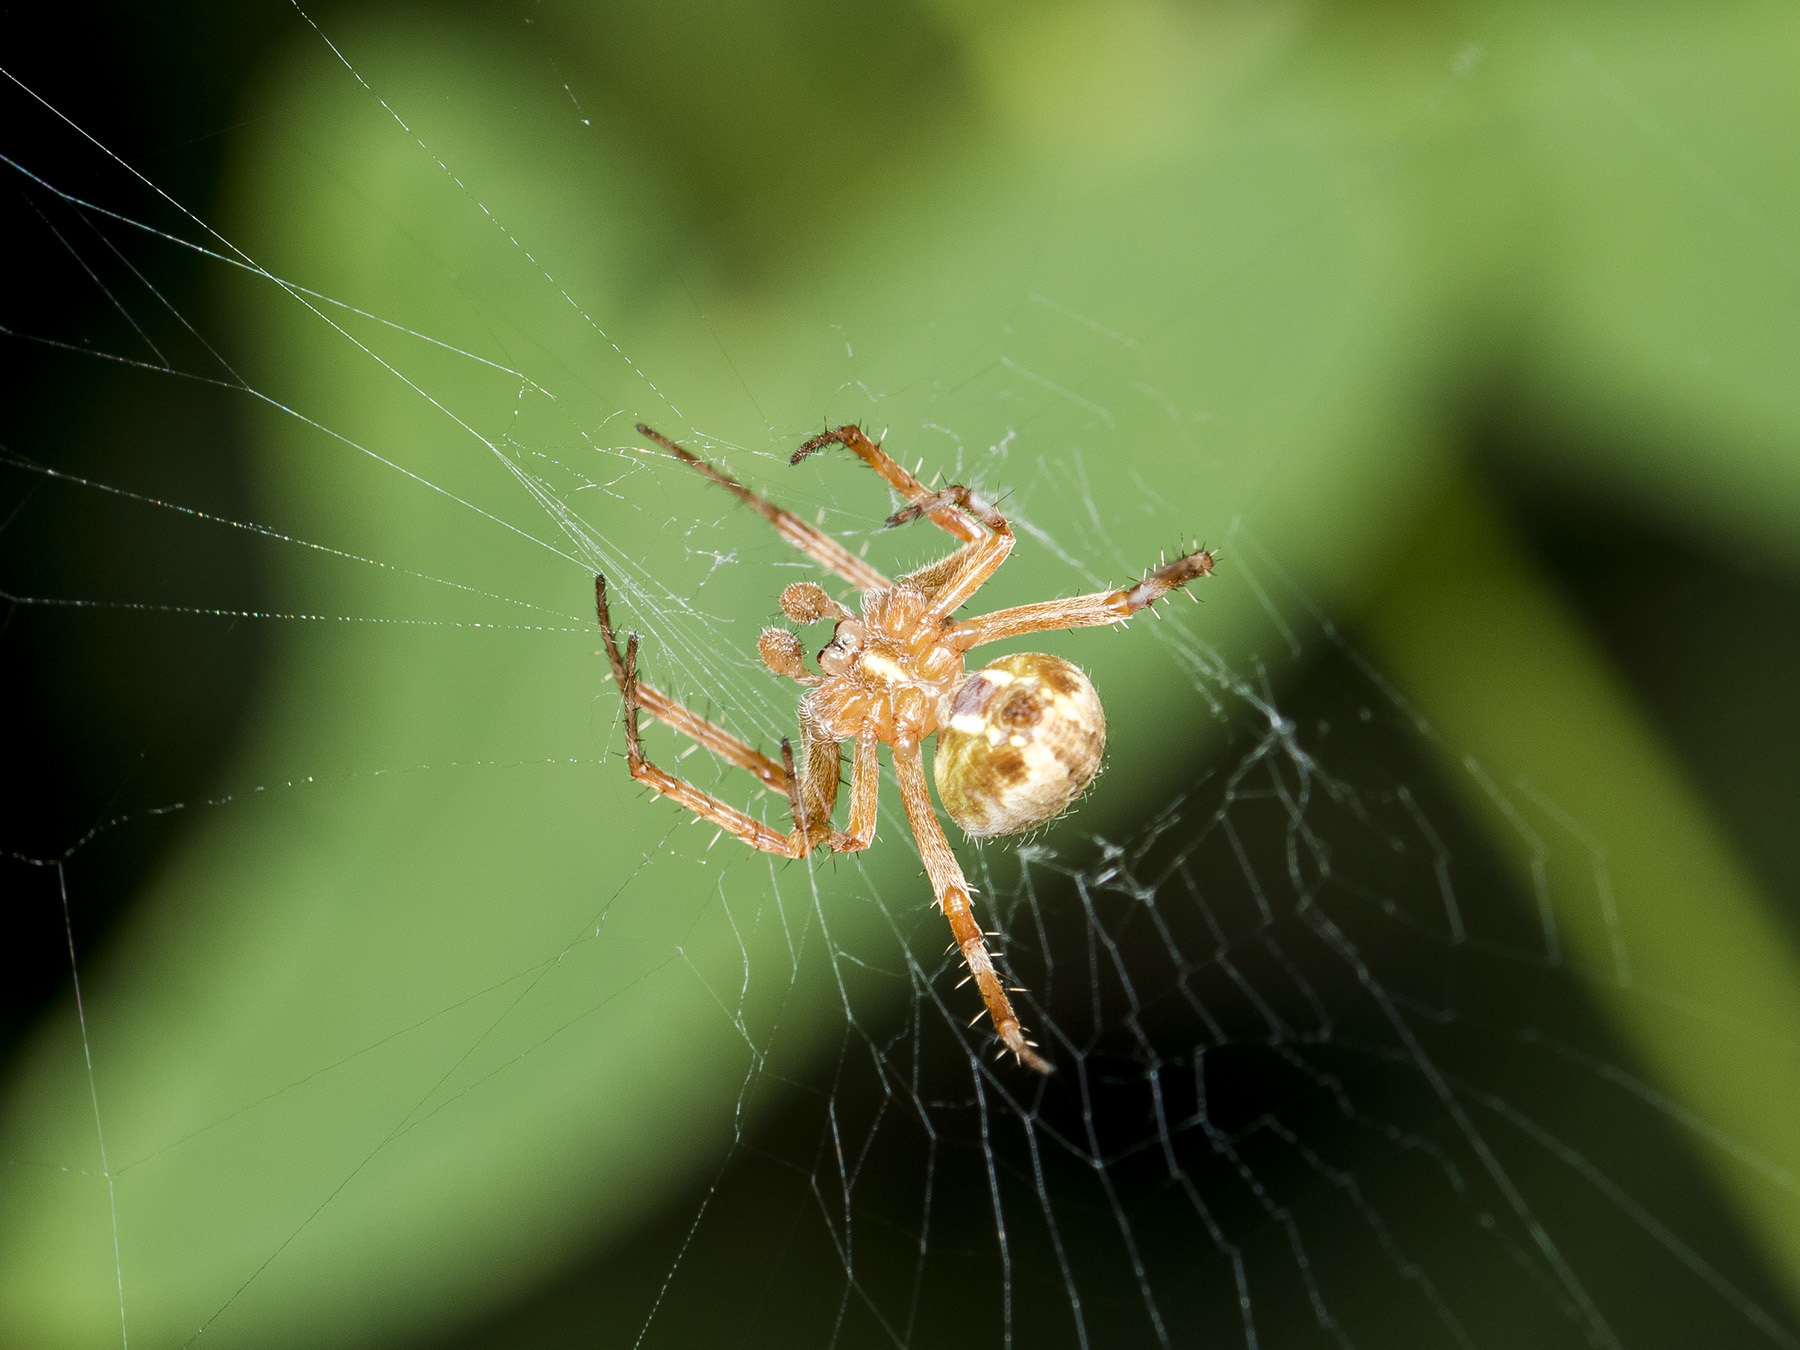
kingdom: Animalia
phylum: Arthropoda
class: Arachnida
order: Araneae
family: Araneidae
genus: Neoscona
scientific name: Neoscona spasskyi
